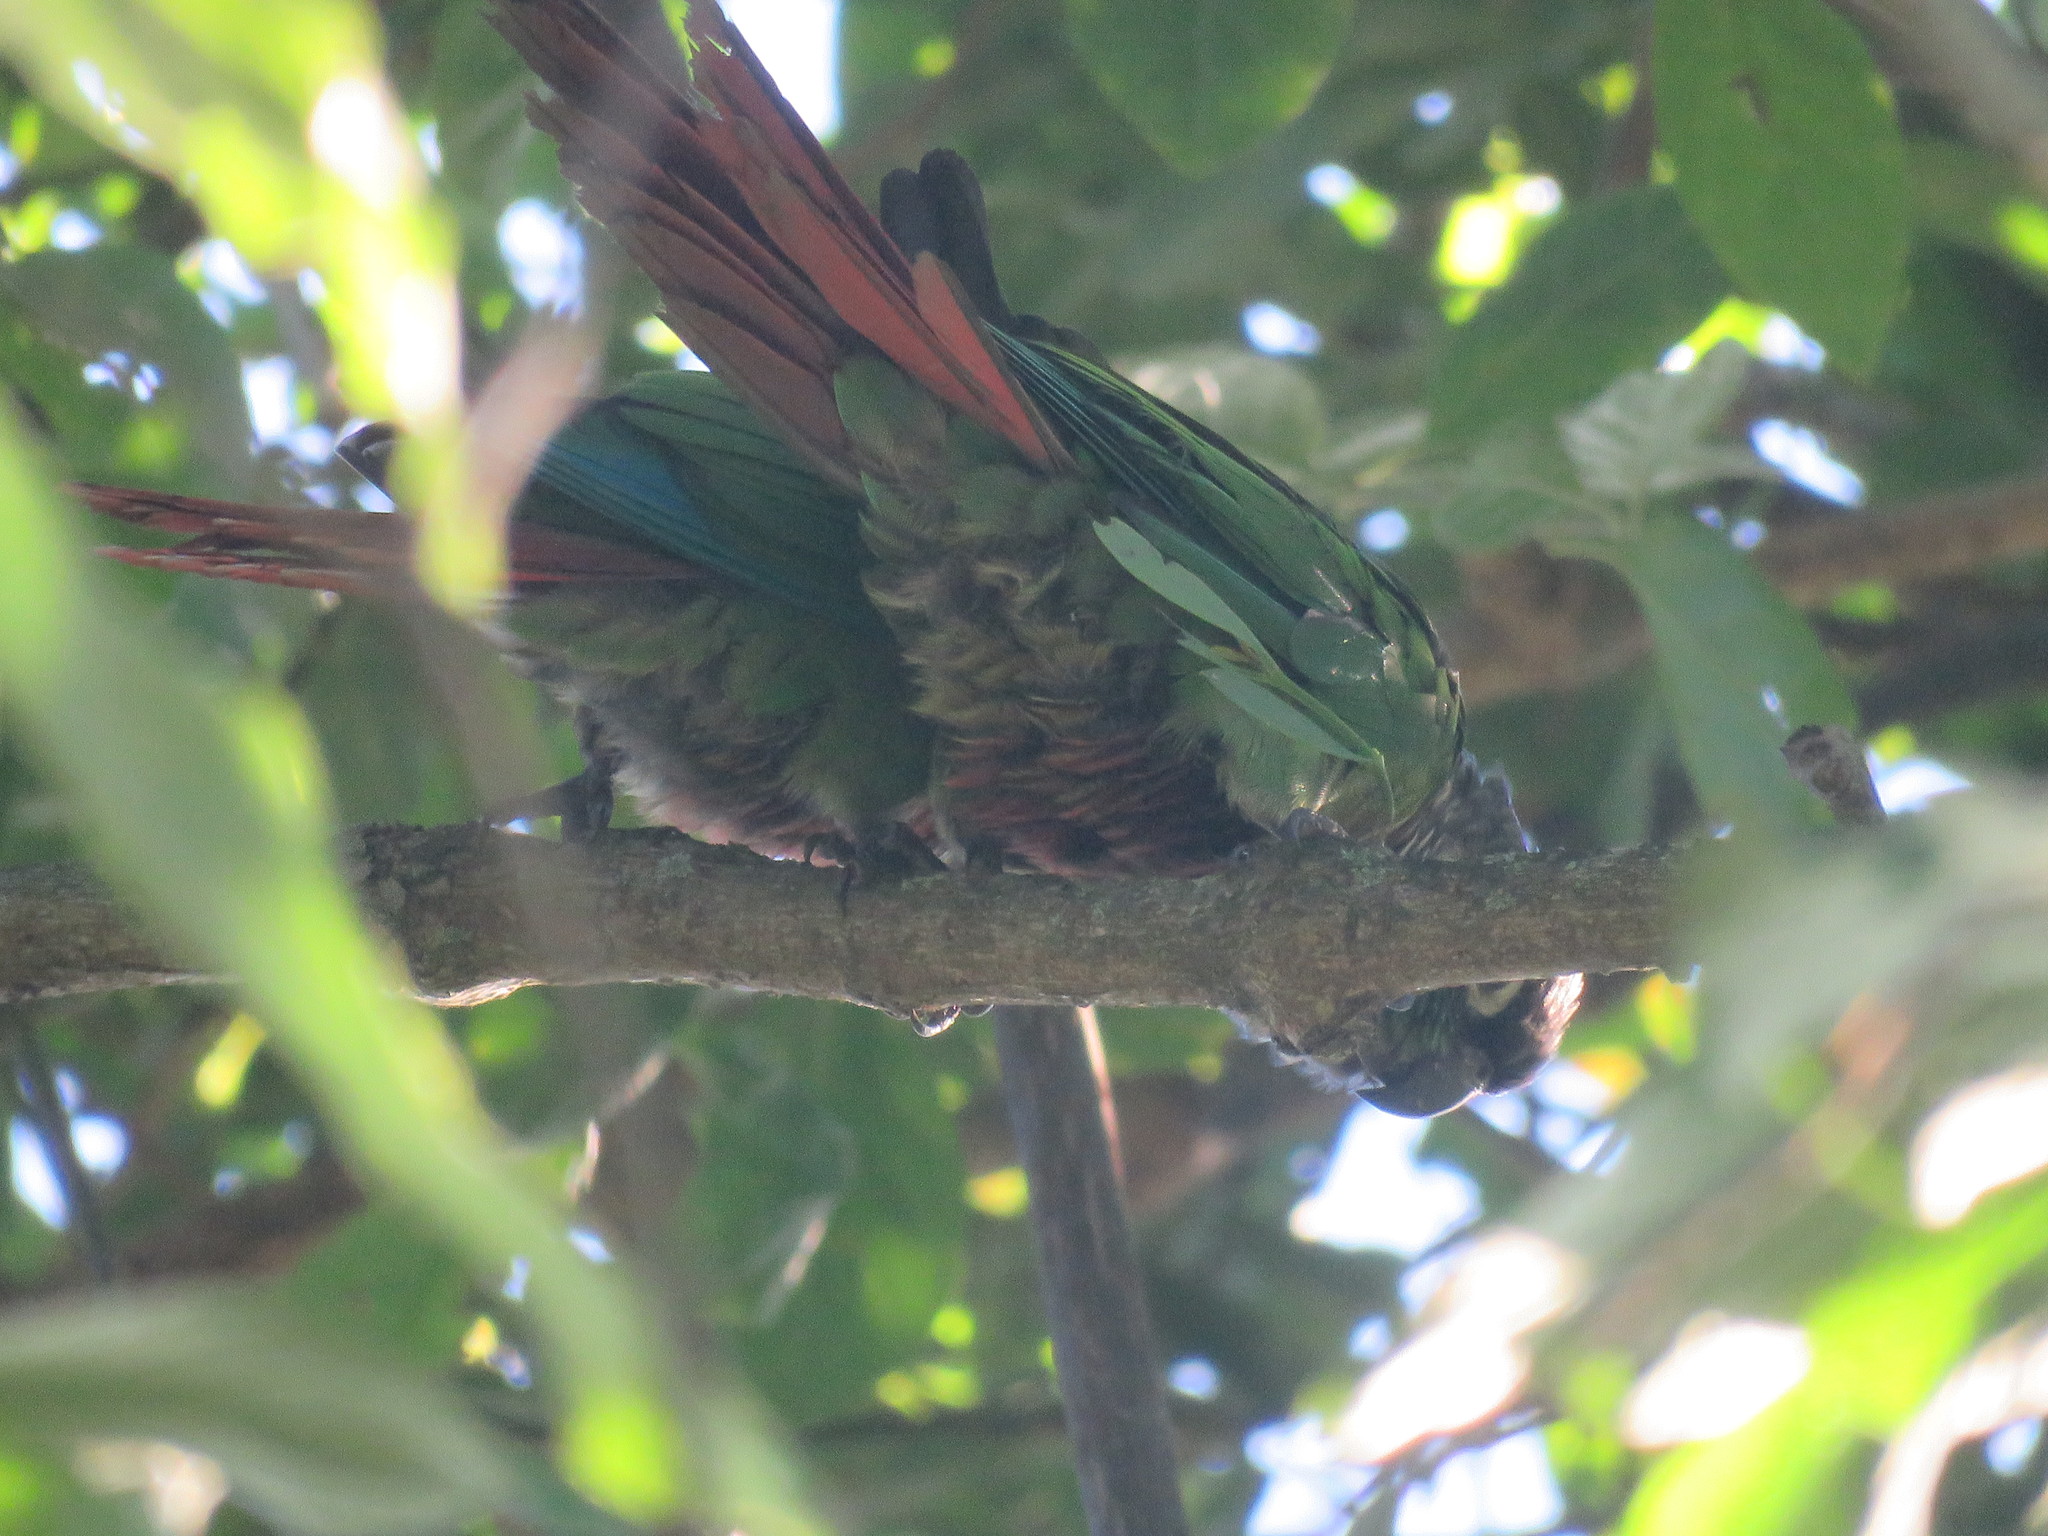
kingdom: Animalia
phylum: Chordata
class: Aves
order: Psittaciformes
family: Psittacidae
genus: Pyrrhura
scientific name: Pyrrhura molinae
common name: Green-cheeked parakeet
